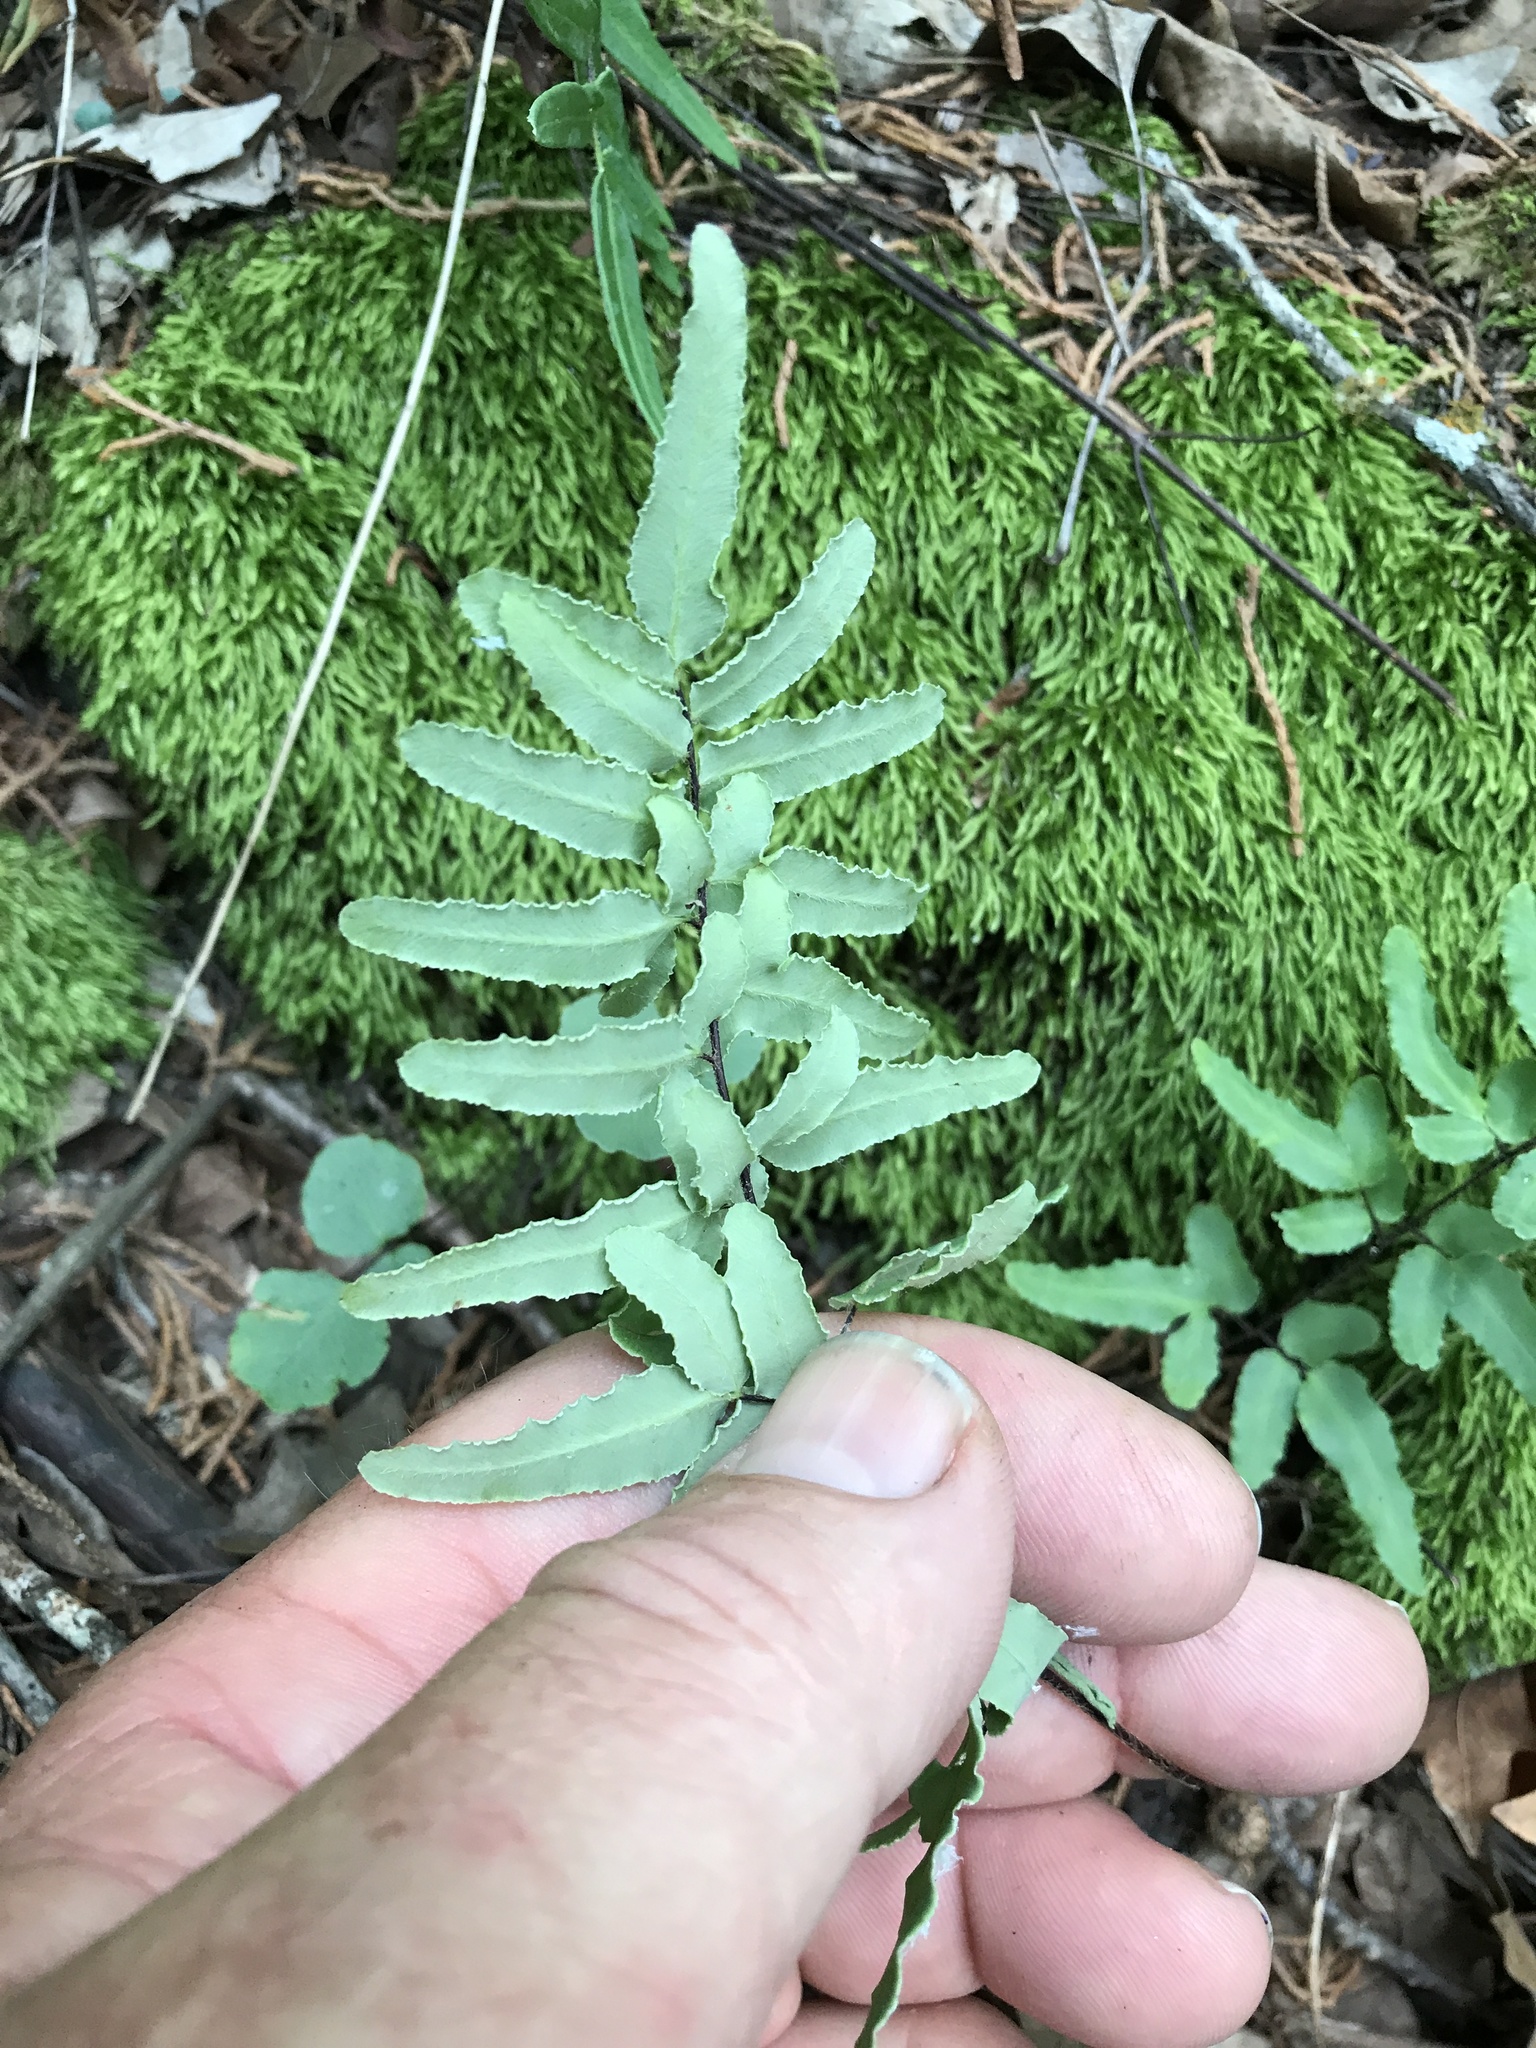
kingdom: Plantae
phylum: Tracheophyta
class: Polypodiopsida
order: Polypodiales
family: Pteridaceae
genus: Pellaea
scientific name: Pellaea atropurpurea
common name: Hairy cliffbrake
